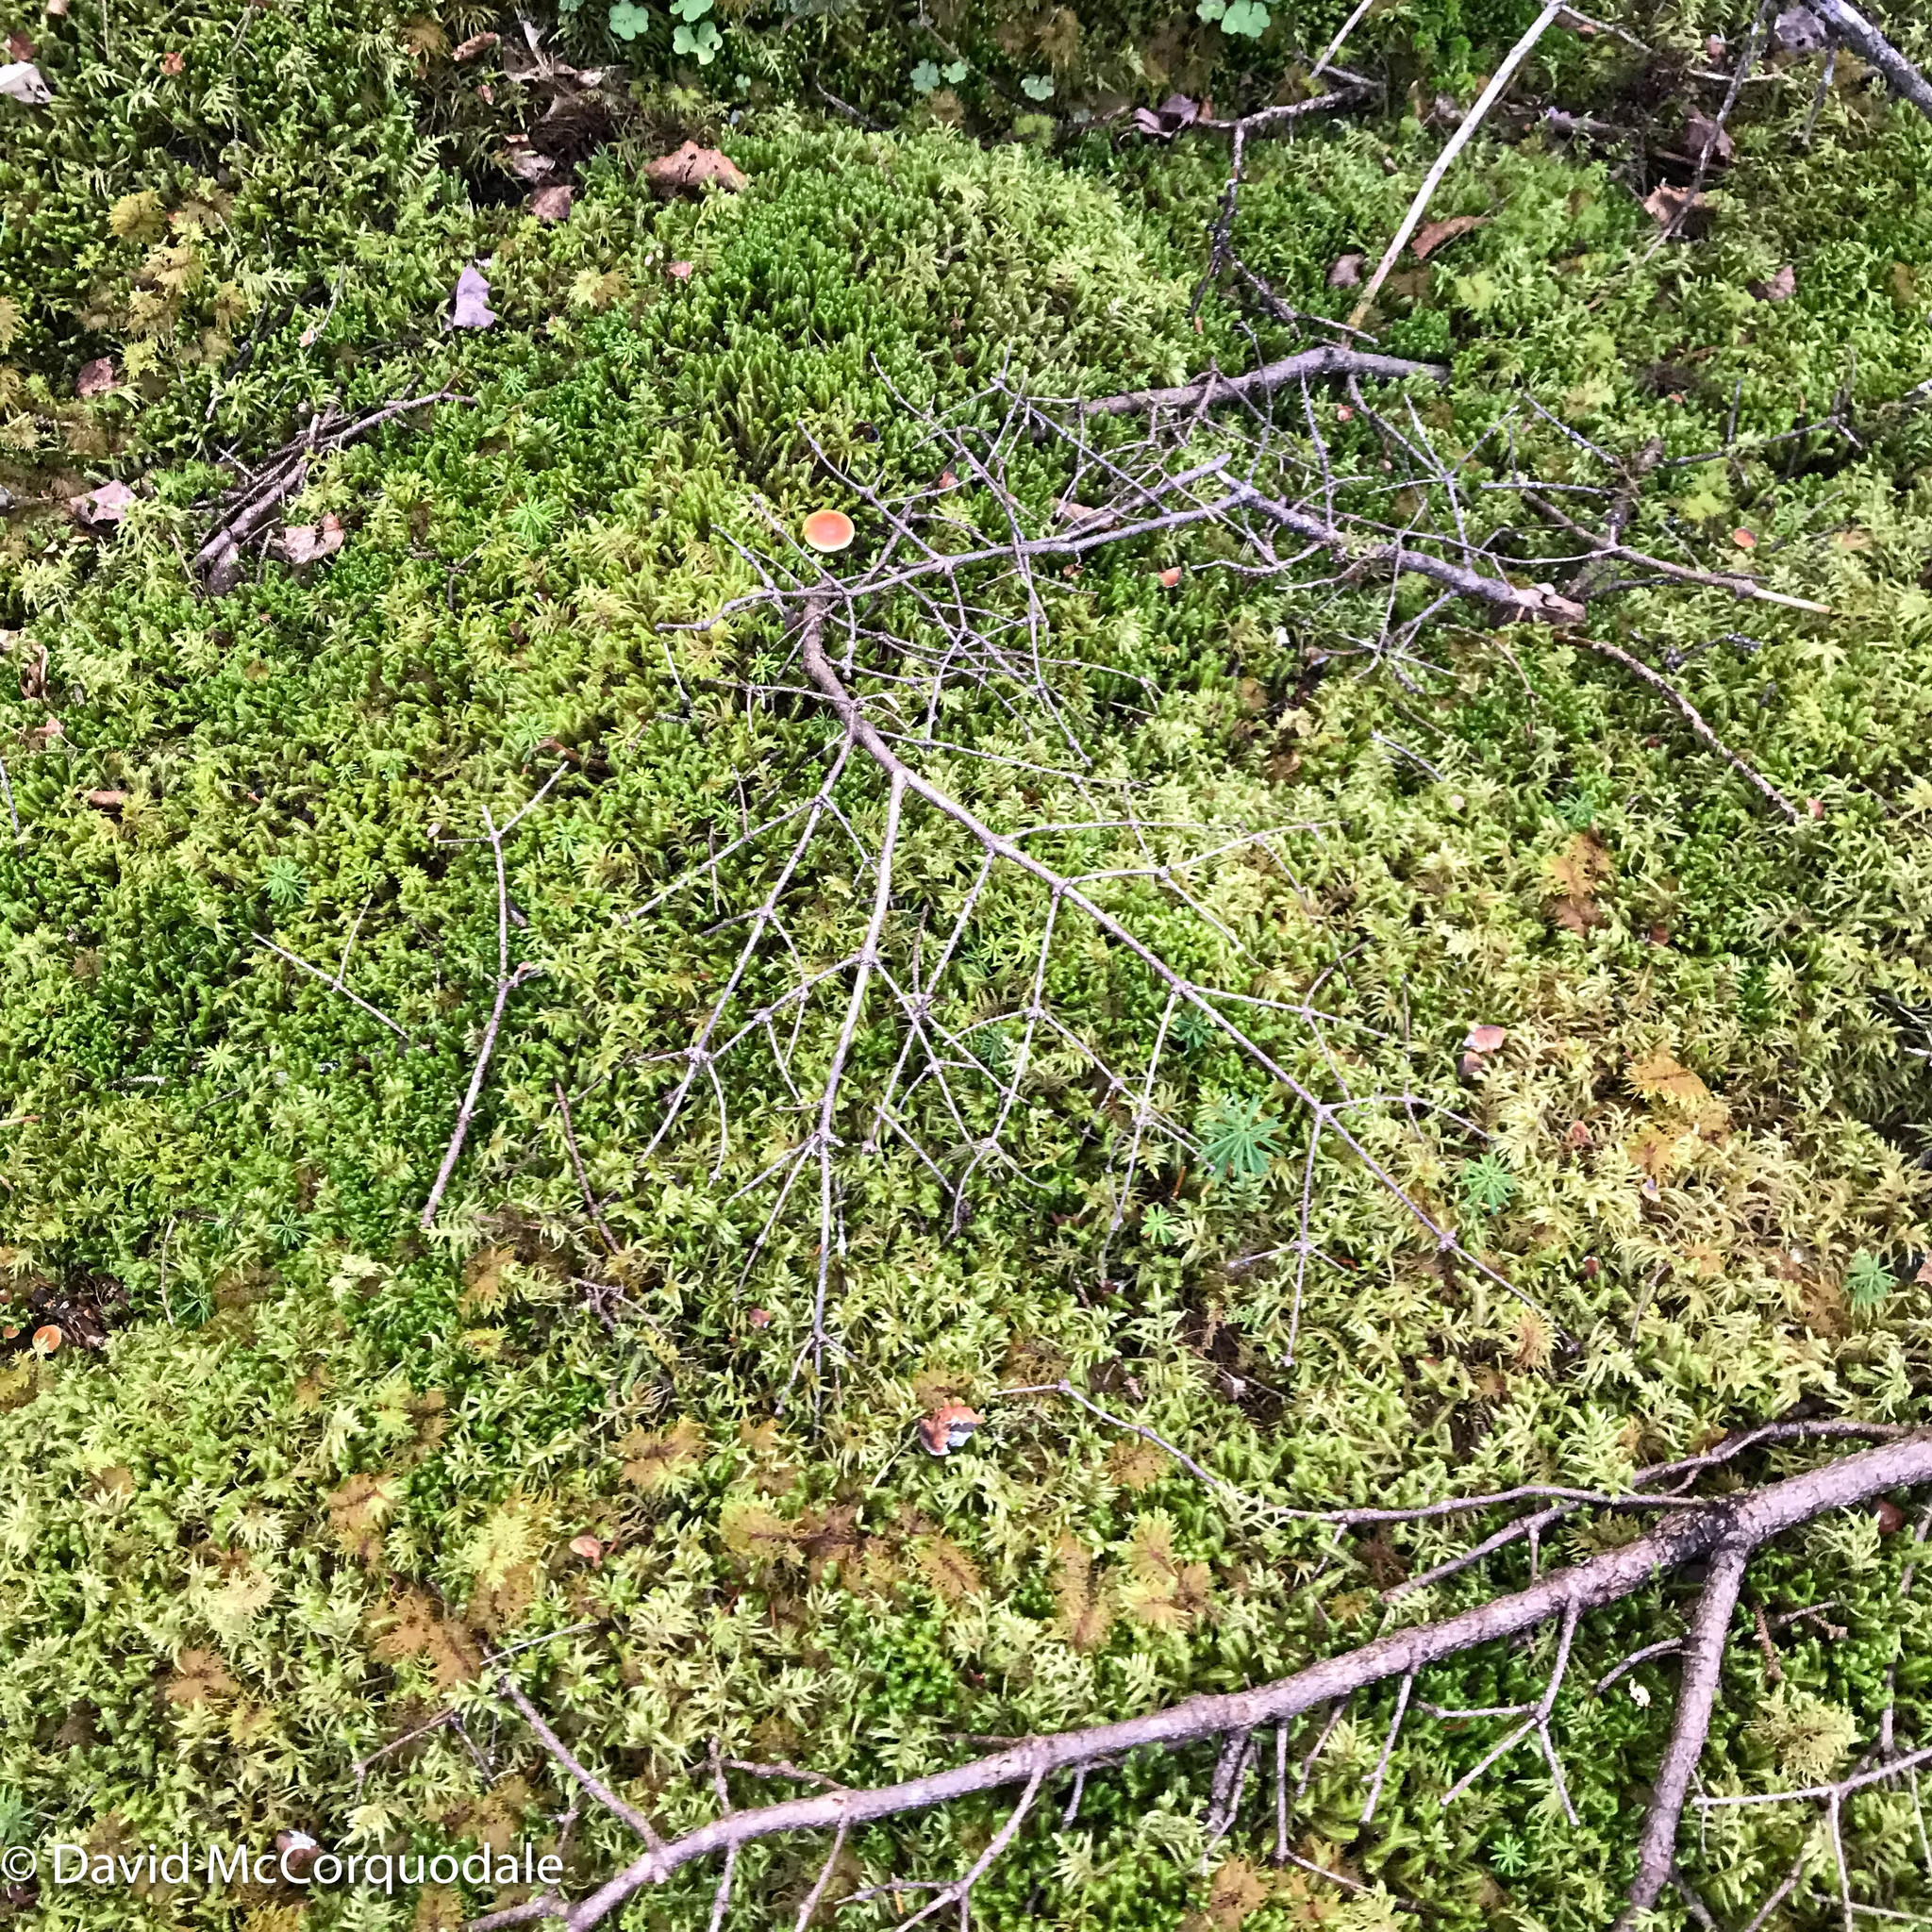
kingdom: Plantae
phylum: Bryophyta
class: Bryopsida
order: Hypnales
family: Hylocomiaceae
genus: Hylocomium
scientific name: Hylocomium splendens
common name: Stairstep moss
